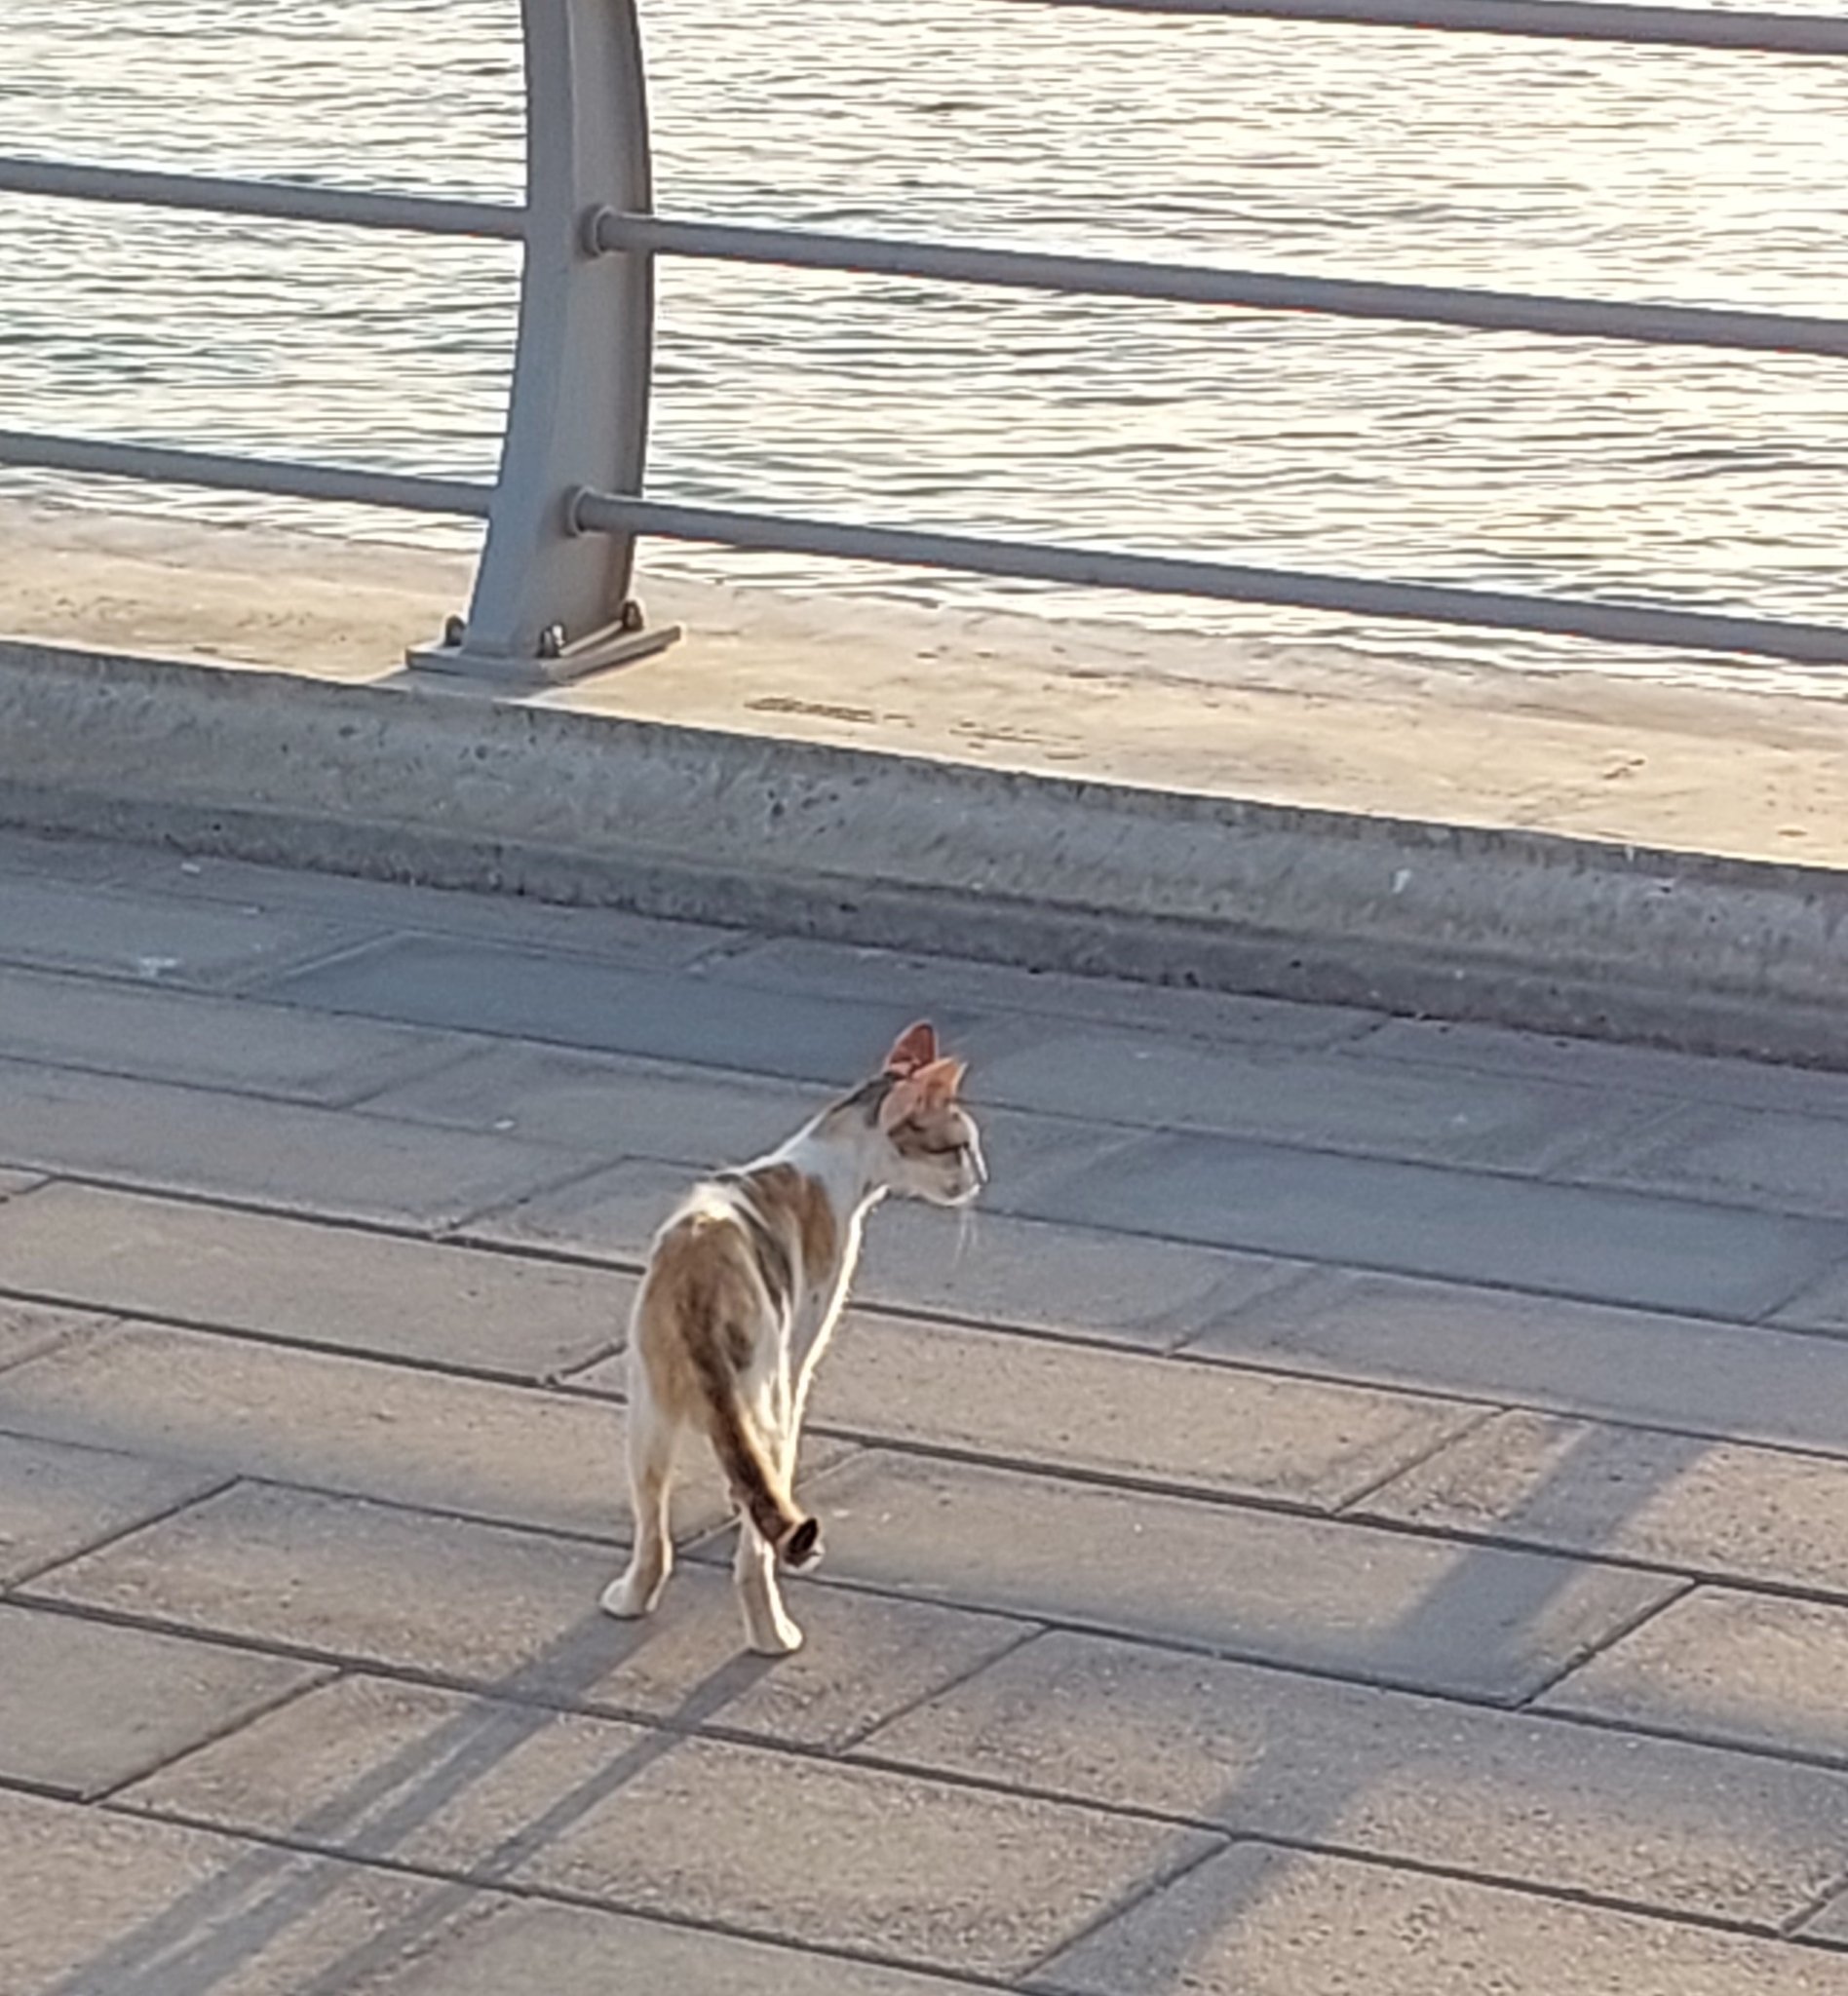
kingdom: Animalia
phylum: Chordata
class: Mammalia
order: Carnivora
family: Felidae
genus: Felis
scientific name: Felis catus
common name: Domestic cat
